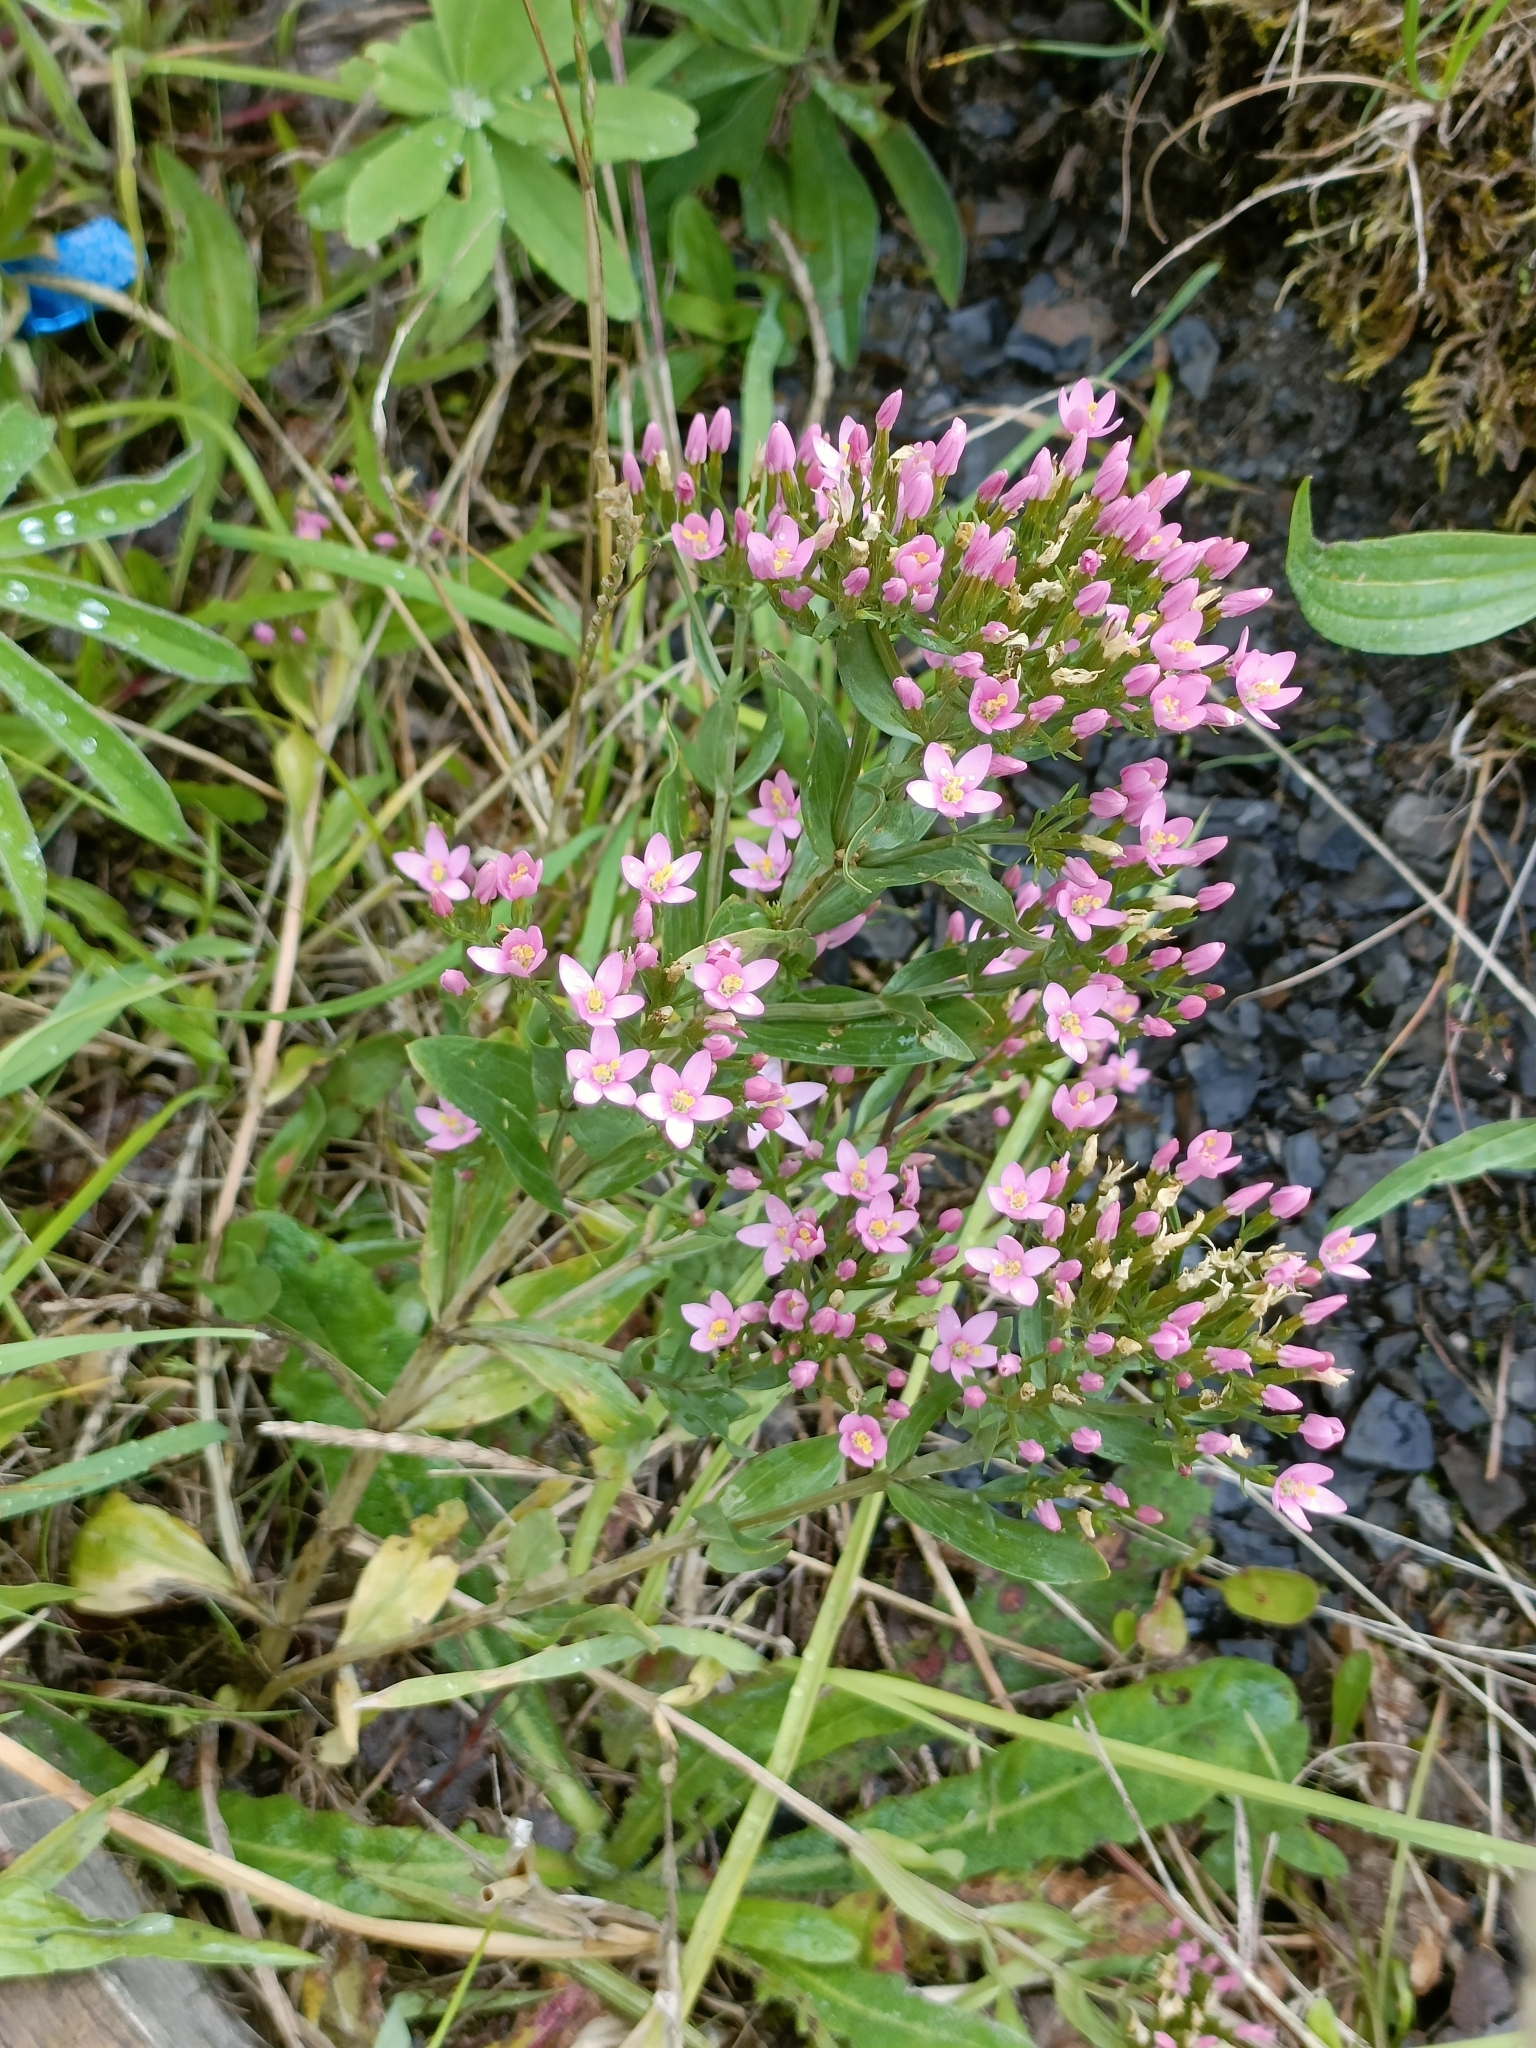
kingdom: Plantae
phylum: Tracheophyta
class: Magnoliopsida
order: Gentianales
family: Gentianaceae
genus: Centaurium
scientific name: Centaurium erythraea
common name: Common centaury
